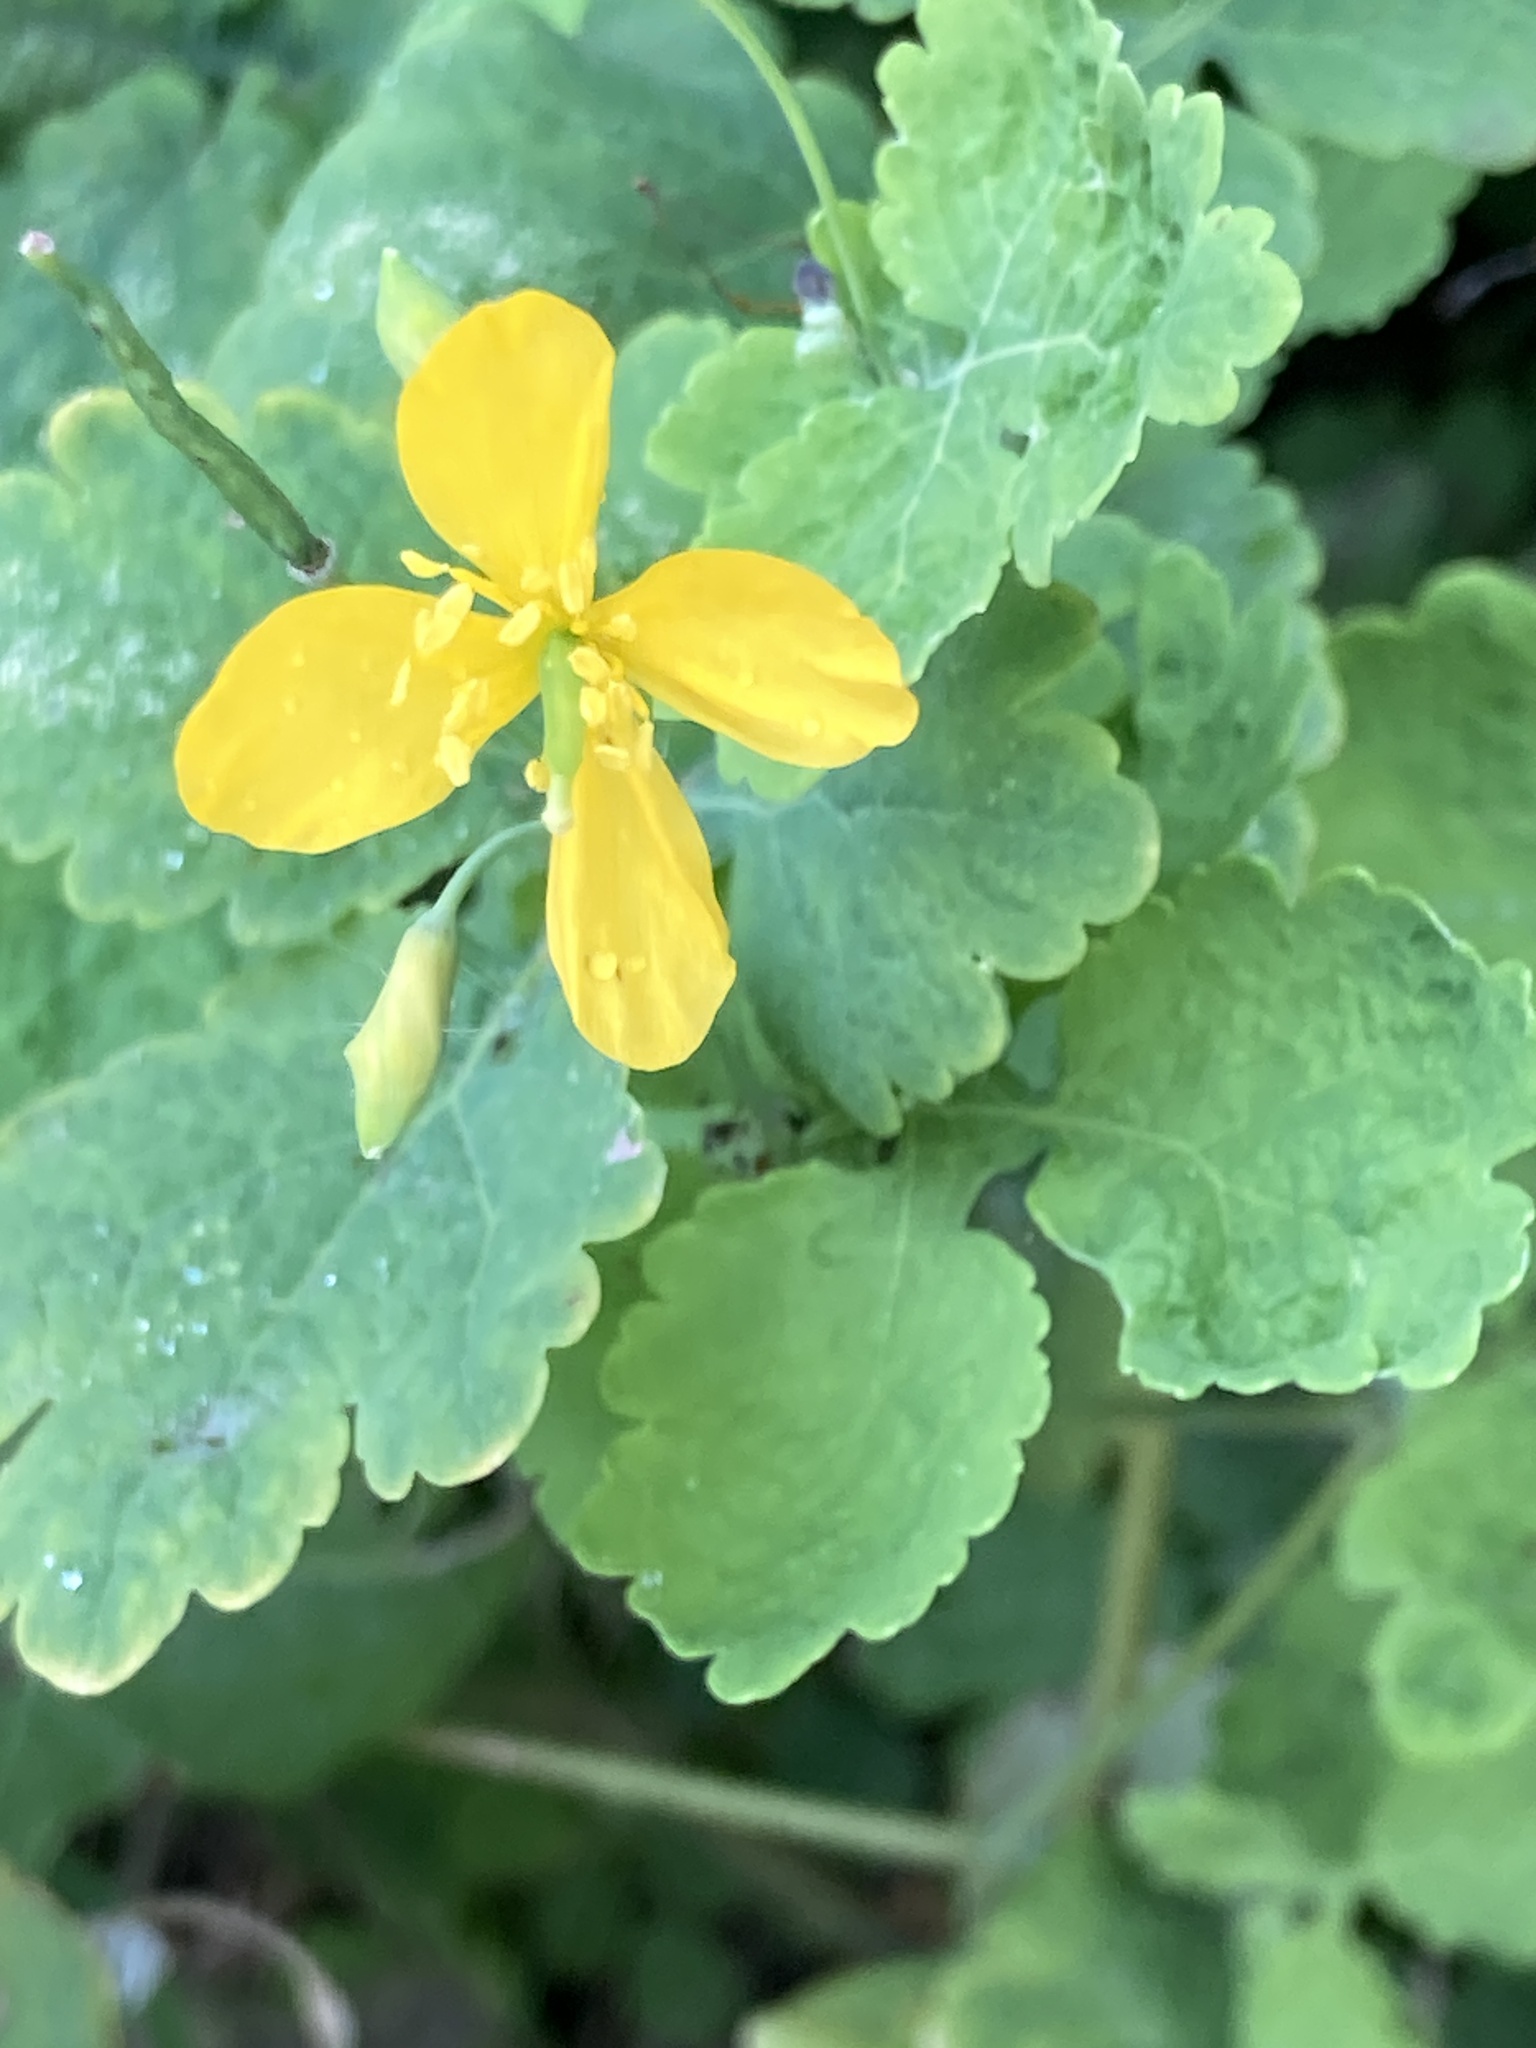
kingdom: Plantae
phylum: Tracheophyta
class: Magnoliopsida
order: Ranunculales
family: Papaveraceae
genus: Chelidonium
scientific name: Chelidonium majus
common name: Greater celandine
